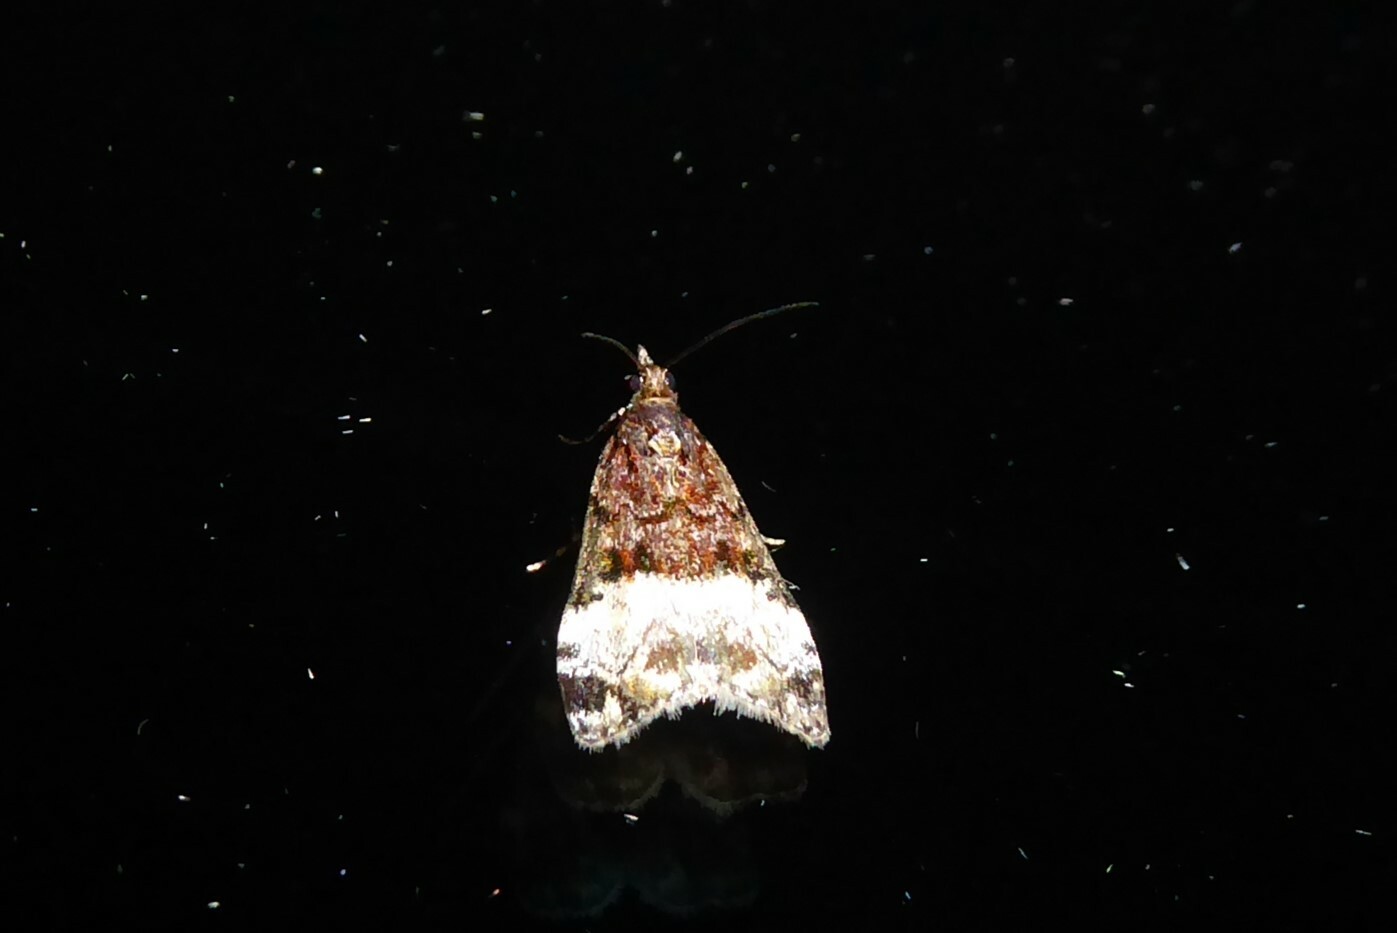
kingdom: Animalia
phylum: Arthropoda
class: Insecta
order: Lepidoptera
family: Crambidae
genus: Scoparia
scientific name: Scoparia minusculalis
